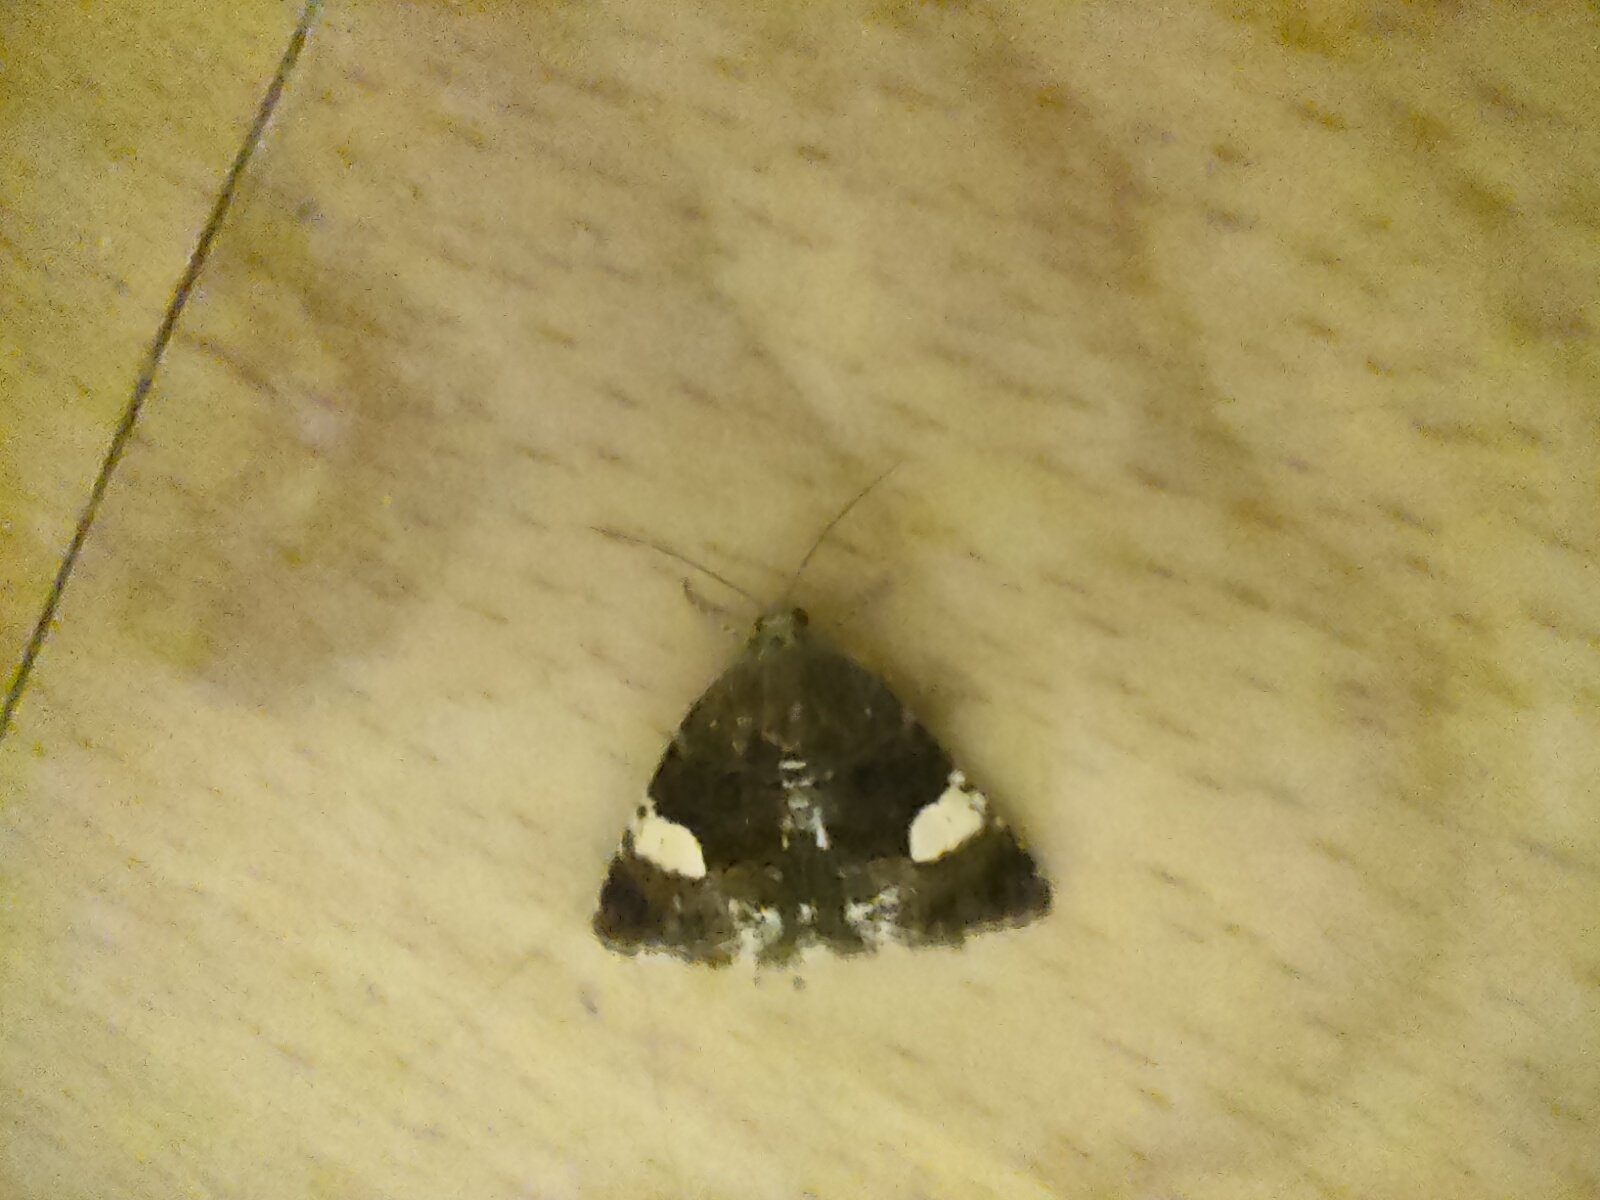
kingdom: Animalia
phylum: Arthropoda
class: Insecta
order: Lepidoptera
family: Erebidae
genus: Tyta
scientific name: Tyta luctuosa
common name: Four-spotted
